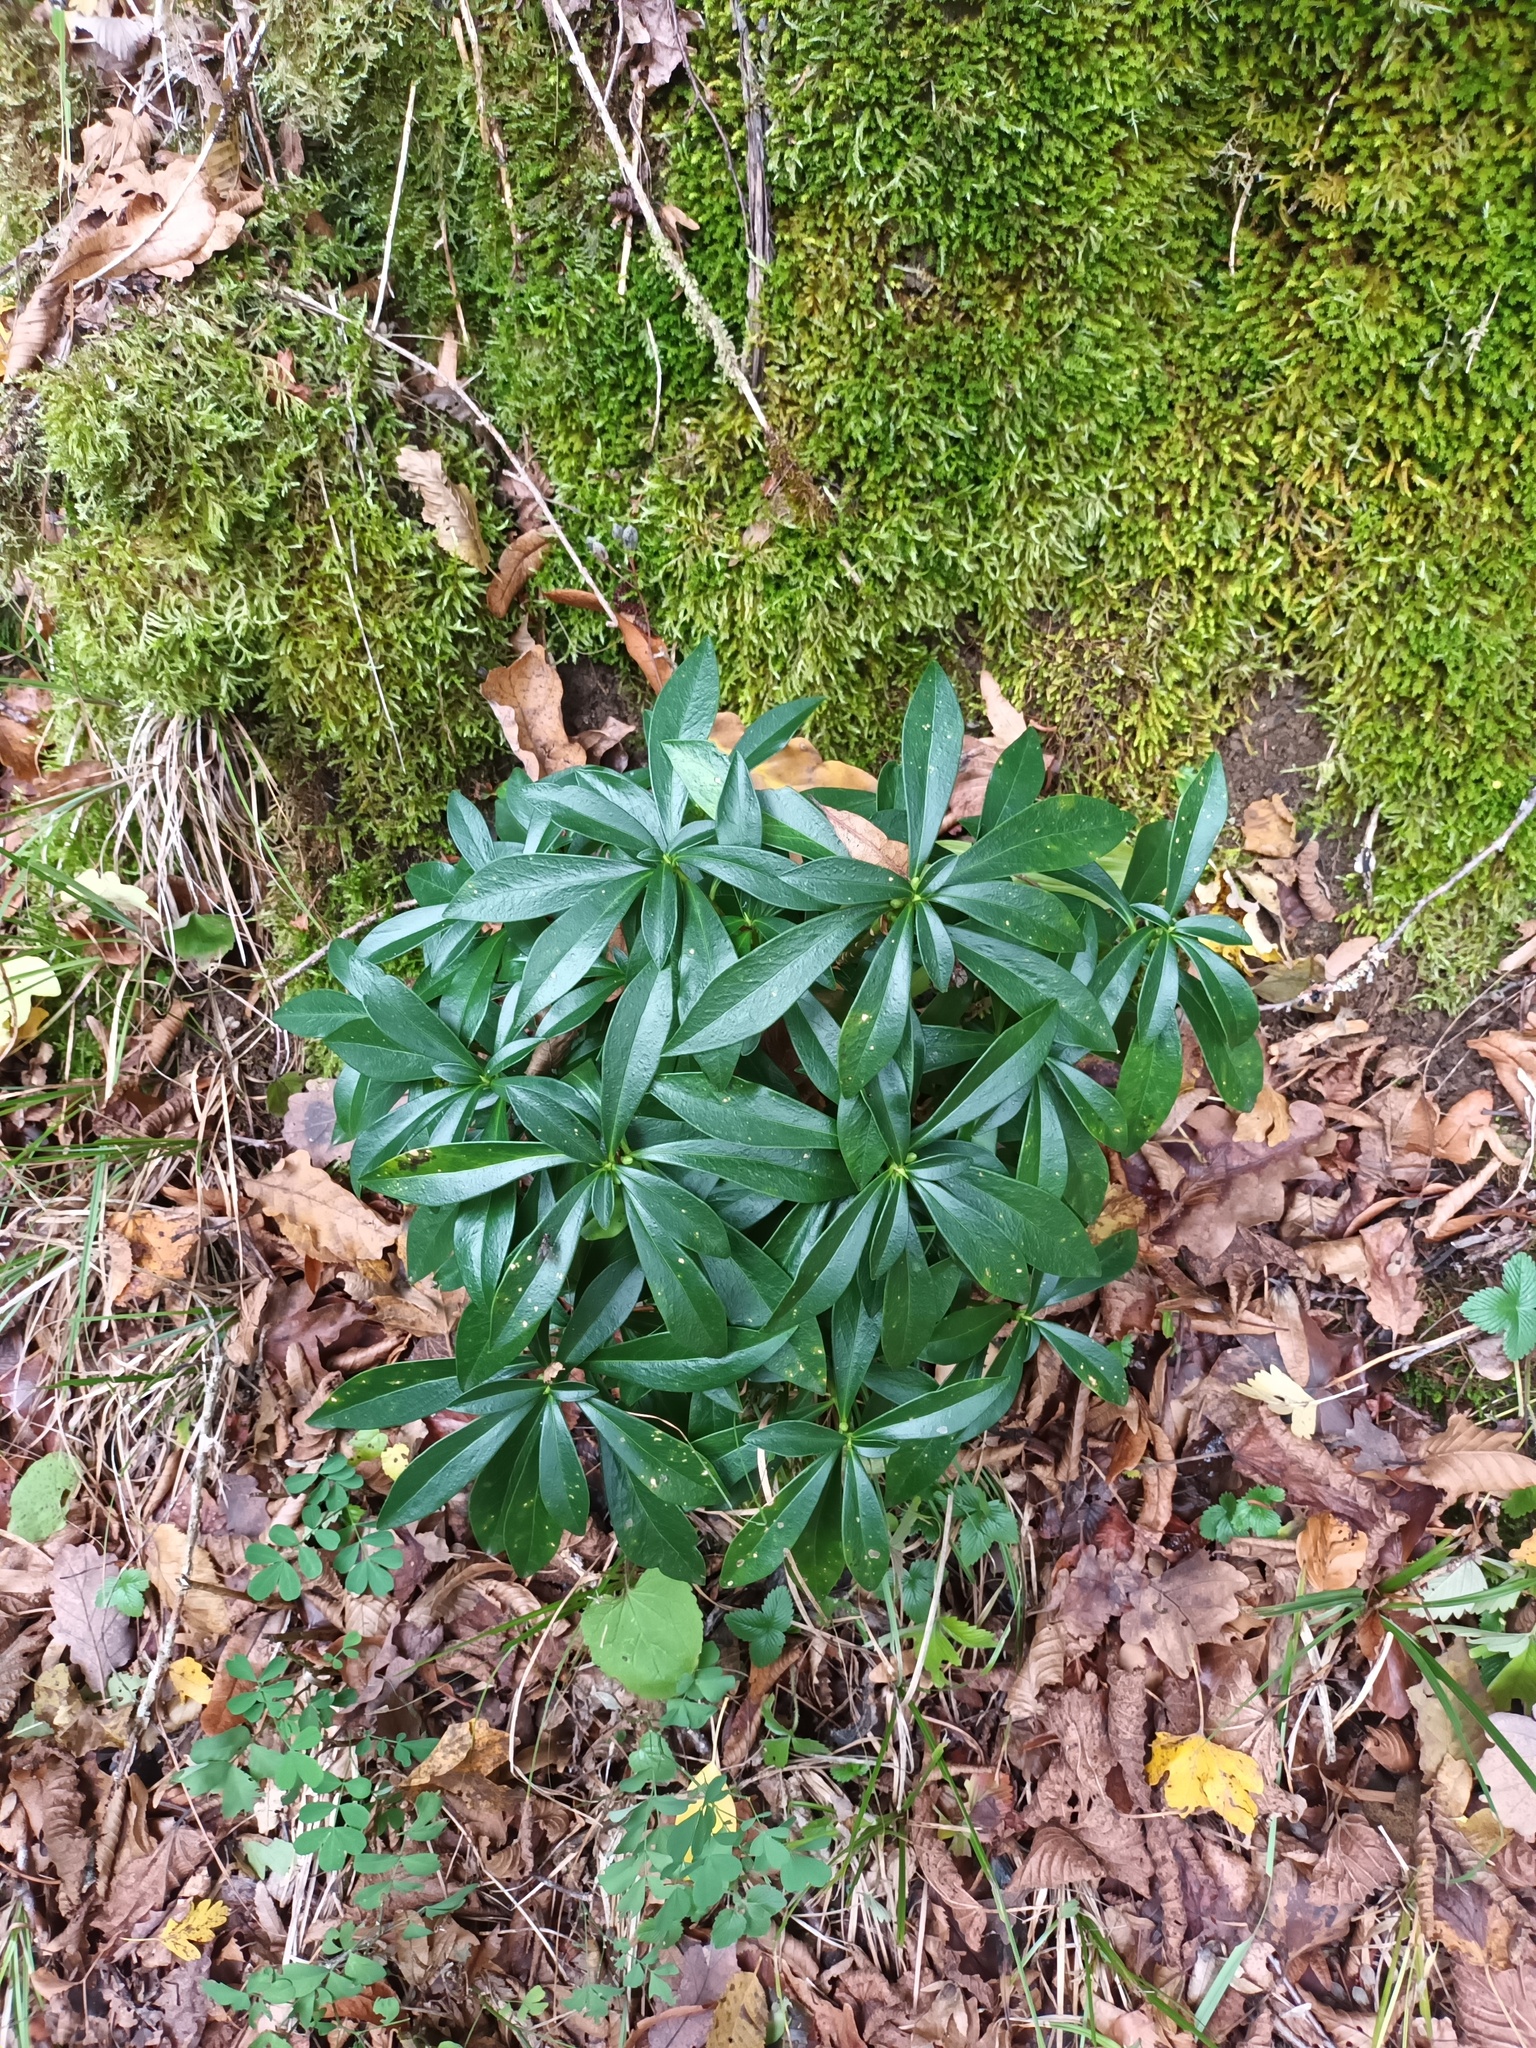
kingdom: Plantae
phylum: Tracheophyta
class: Magnoliopsida
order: Malvales
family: Thymelaeaceae
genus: Daphne
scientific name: Daphne laureola
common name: Spurge-laurel
